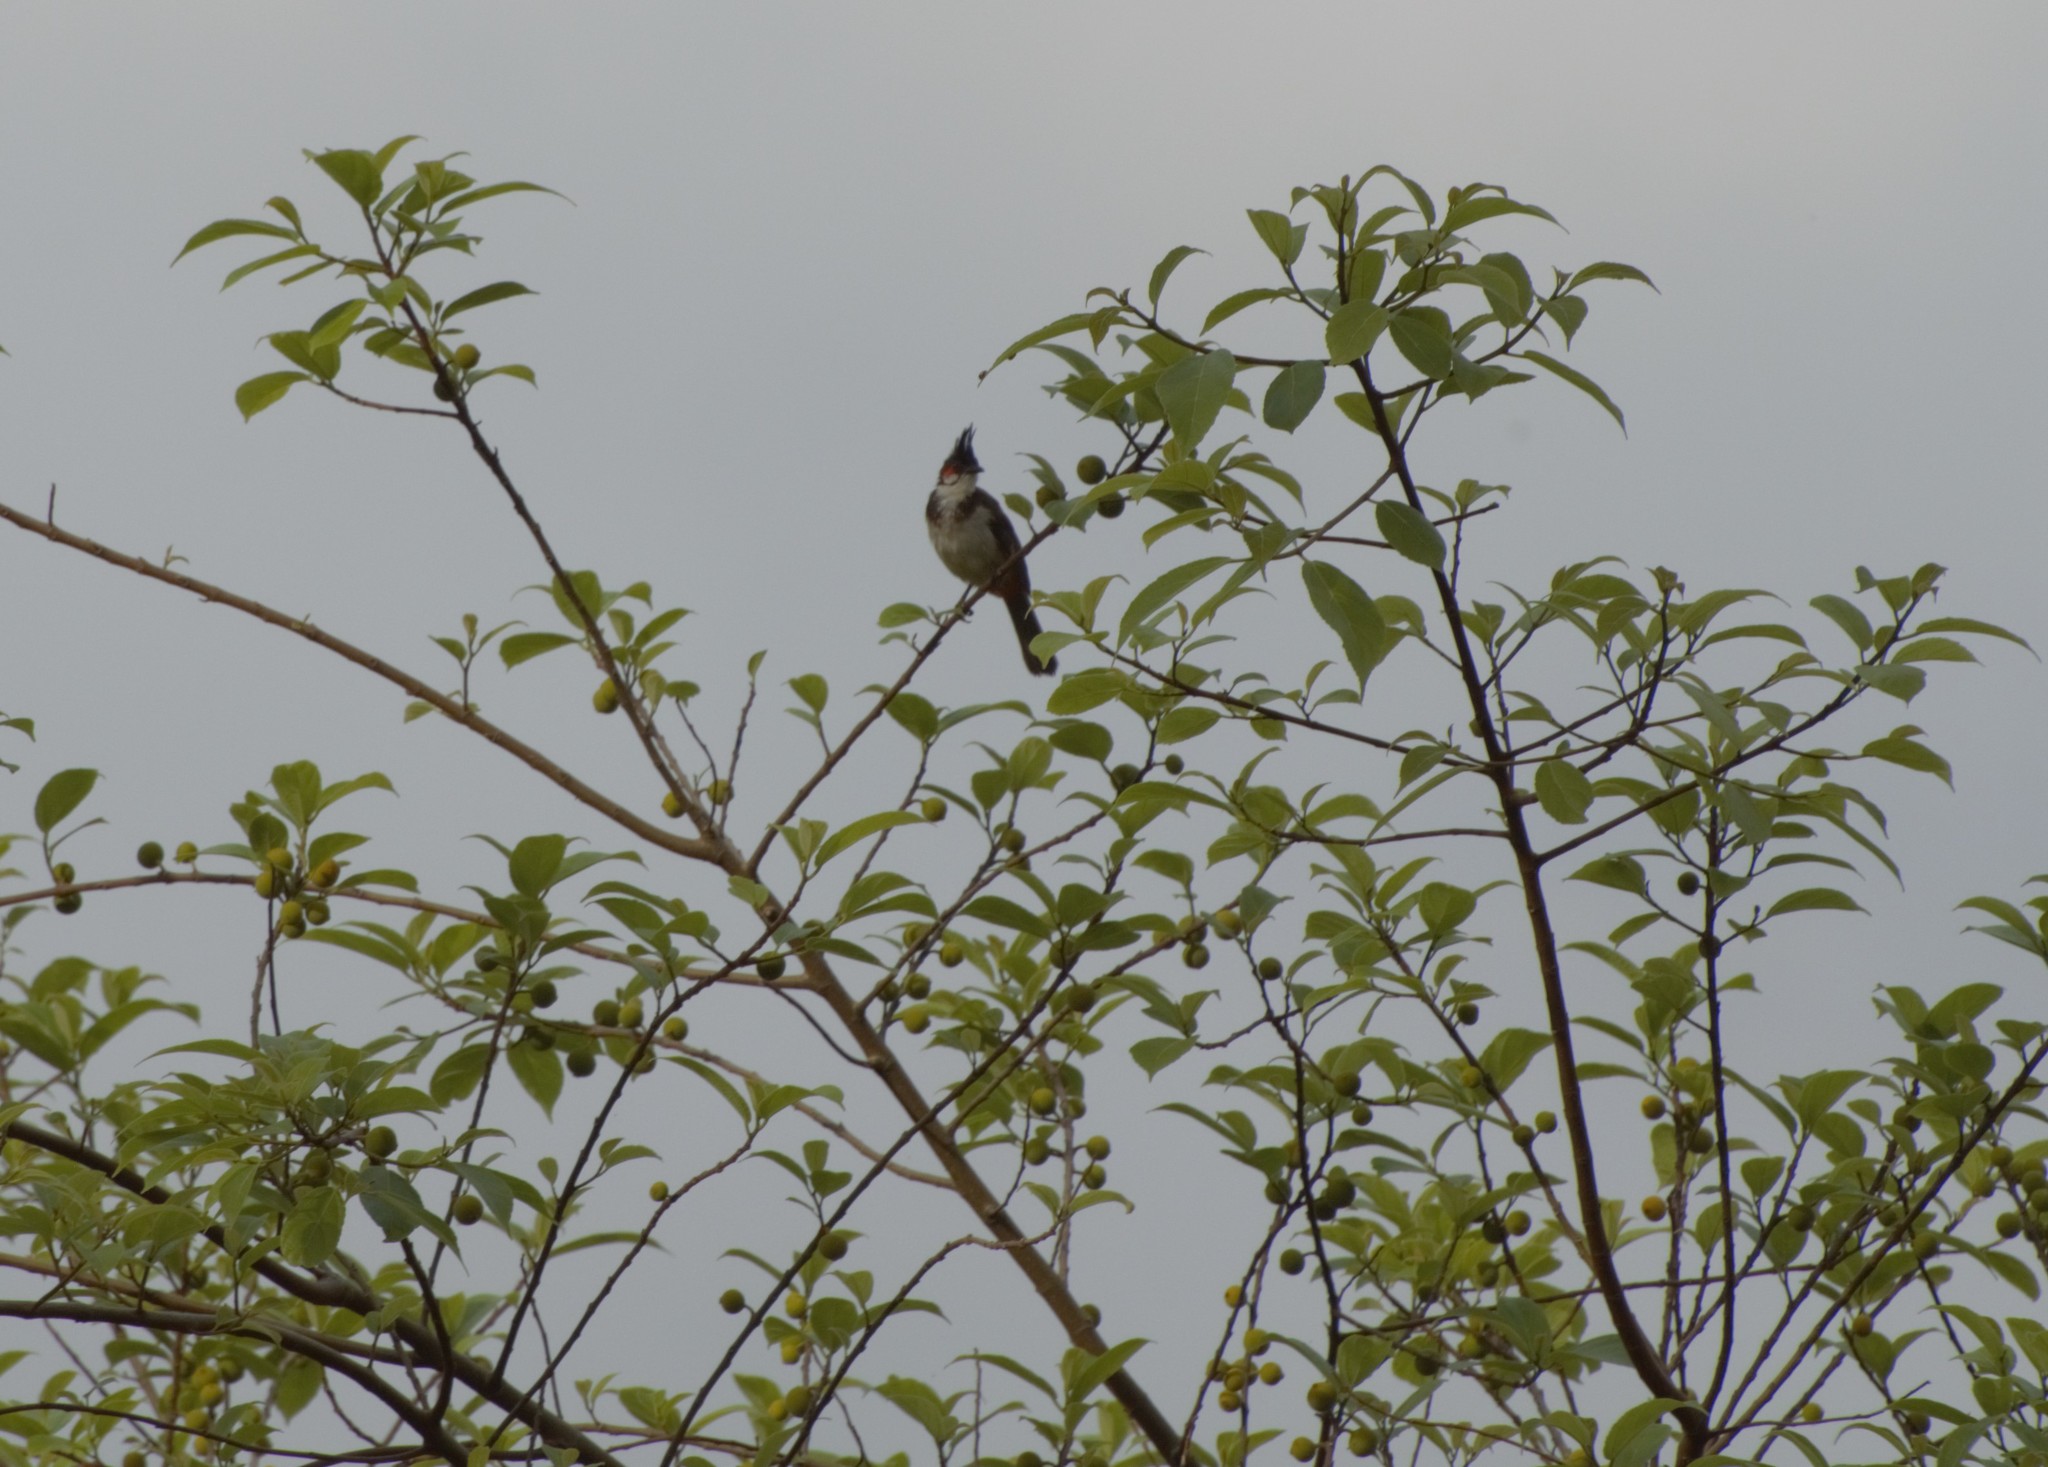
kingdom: Animalia
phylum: Chordata
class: Aves
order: Passeriformes
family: Pycnonotidae
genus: Pycnonotus
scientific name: Pycnonotus jocosus
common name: Red-whiskered bulbul
